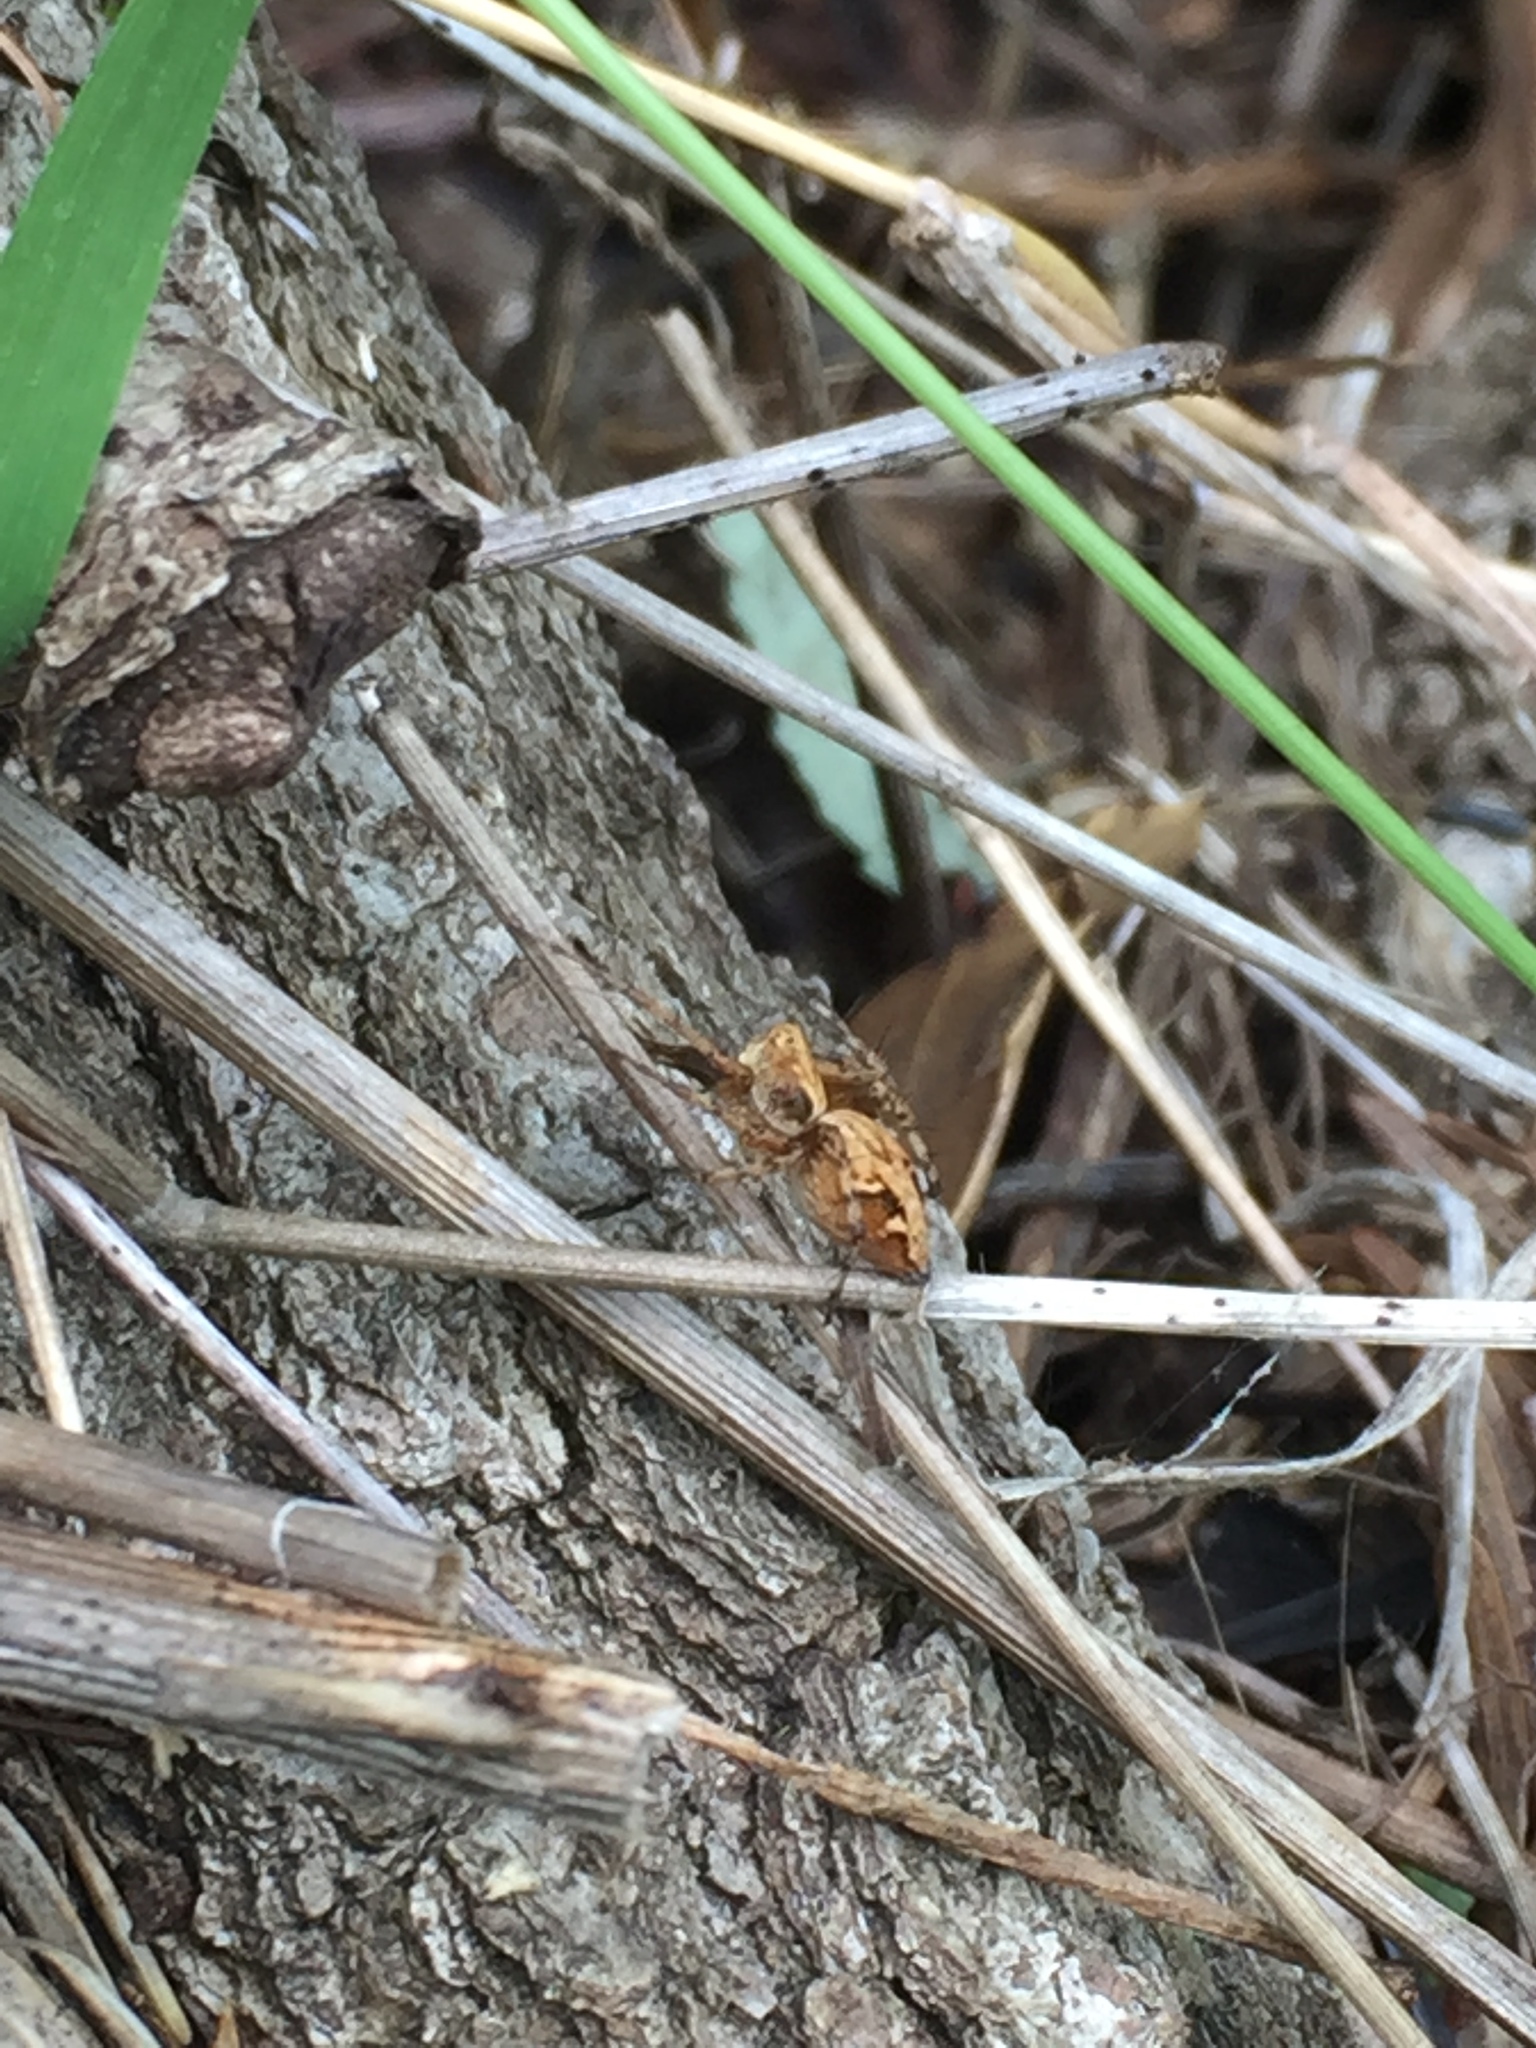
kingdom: Animalia
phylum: Arthropoda
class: Arachnida
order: Araneae
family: Oxyopidae
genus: Oxyopes
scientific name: Oxyopes scalaris
